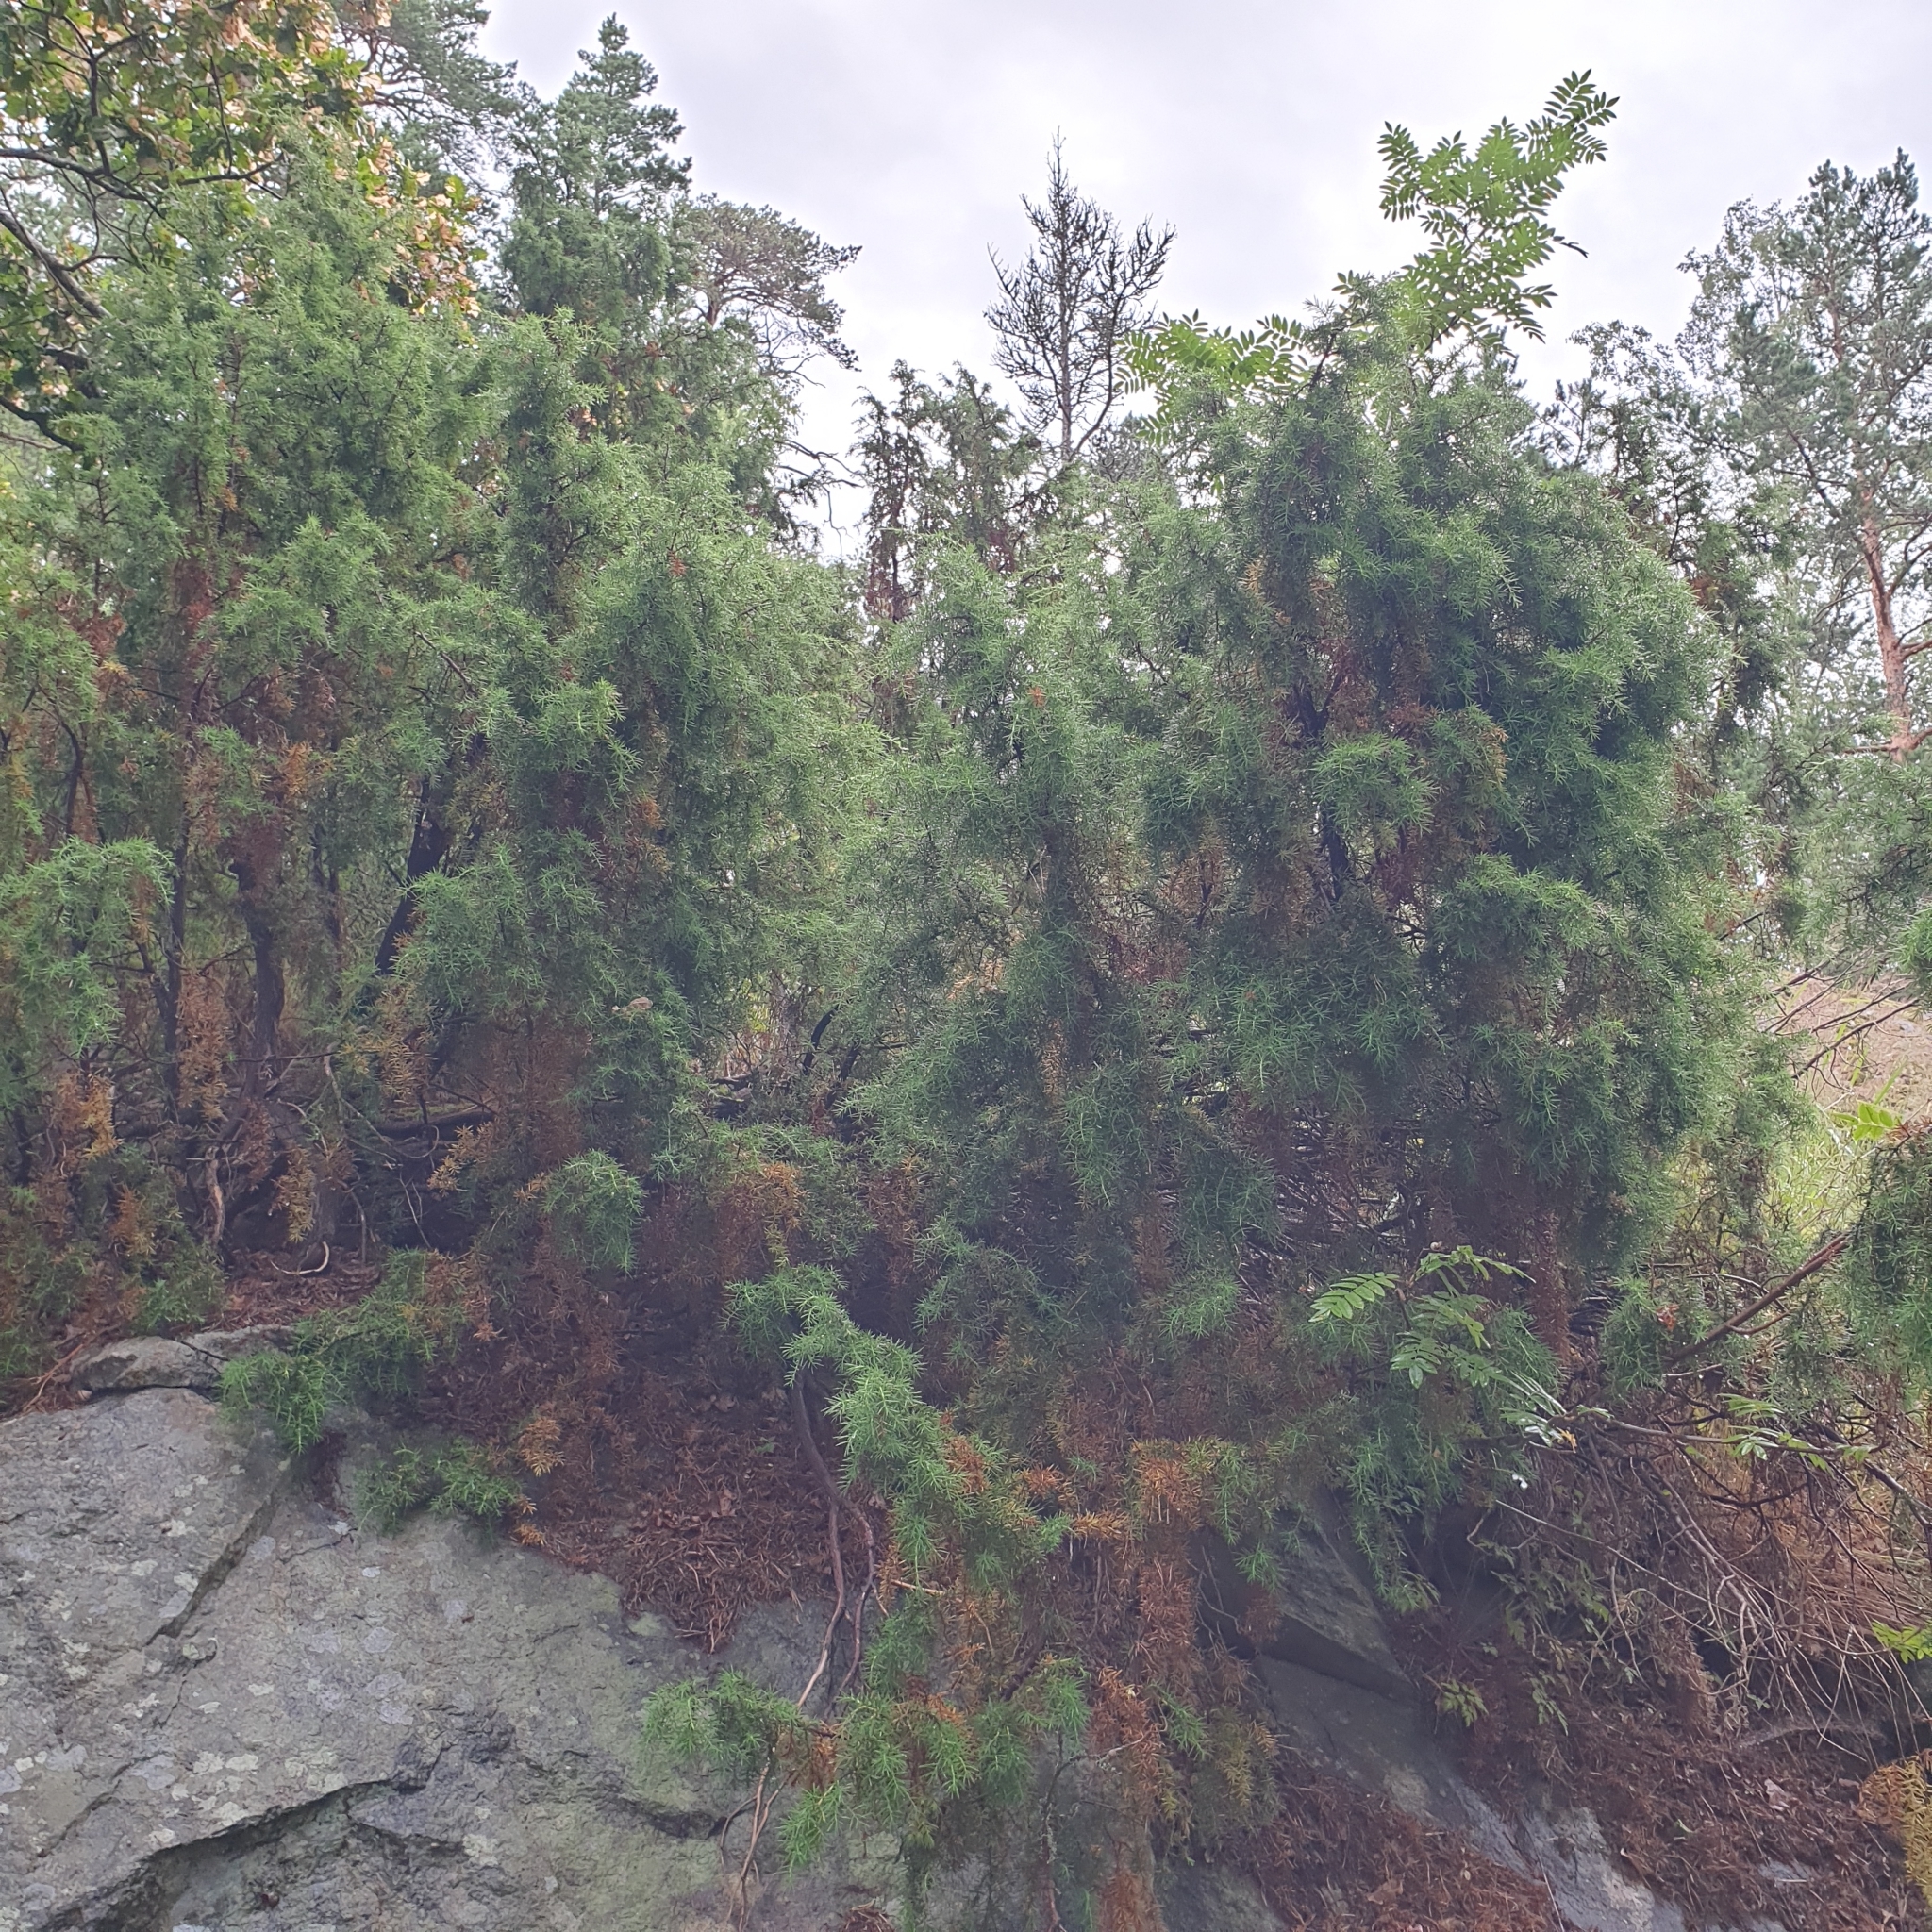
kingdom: Plantae
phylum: Tracheophyta
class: Pinopsida
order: Pinales
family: Cupressaceae
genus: Juniperus
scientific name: Juniperus communis
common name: Common juniper
